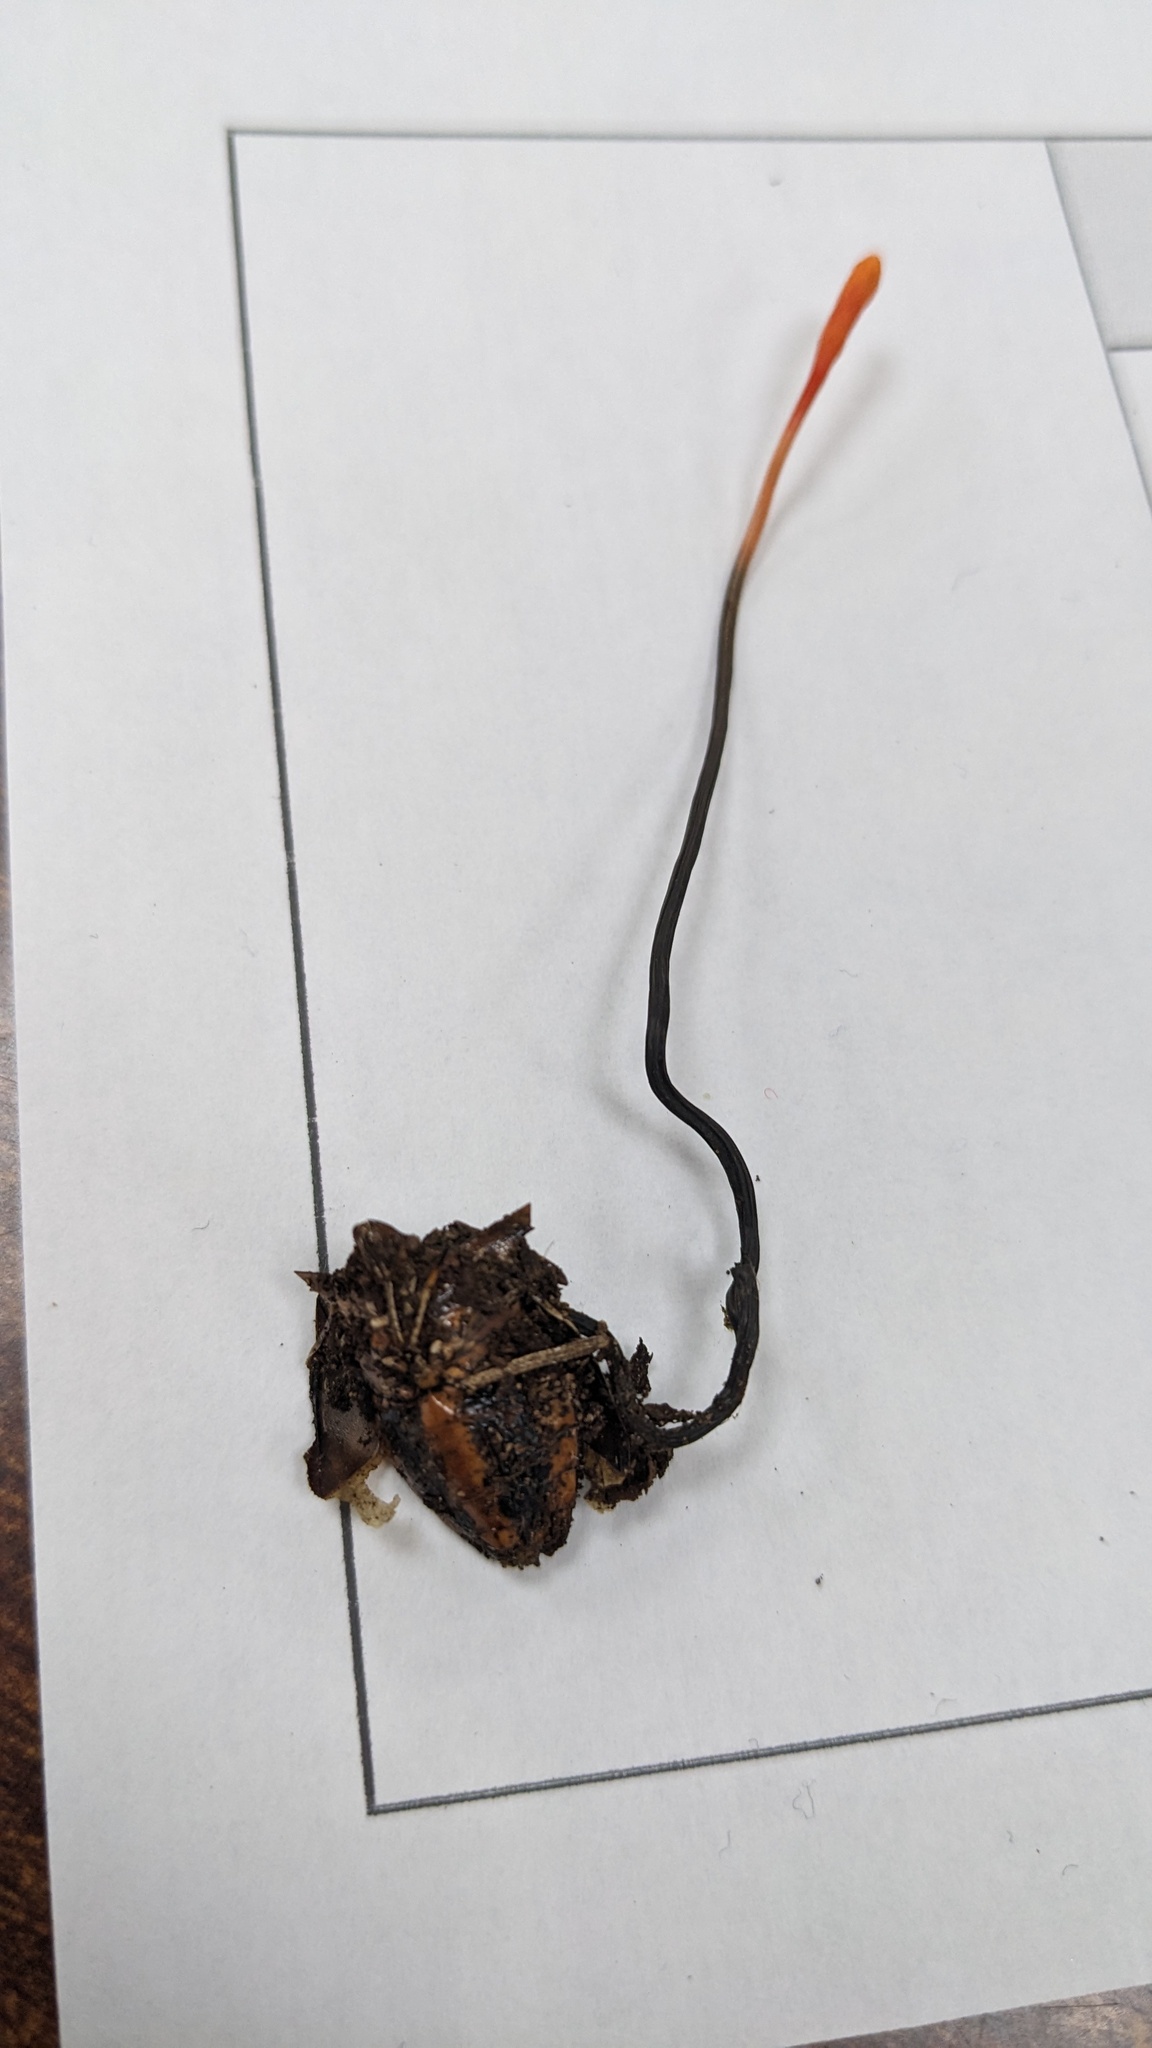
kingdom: Fungi
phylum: Ascomycota
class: Sordariomycetes
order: Hypocreales
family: Ophiocordycipitaceae
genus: Ophiocordyceps
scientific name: Ophiocordyceps nutans
